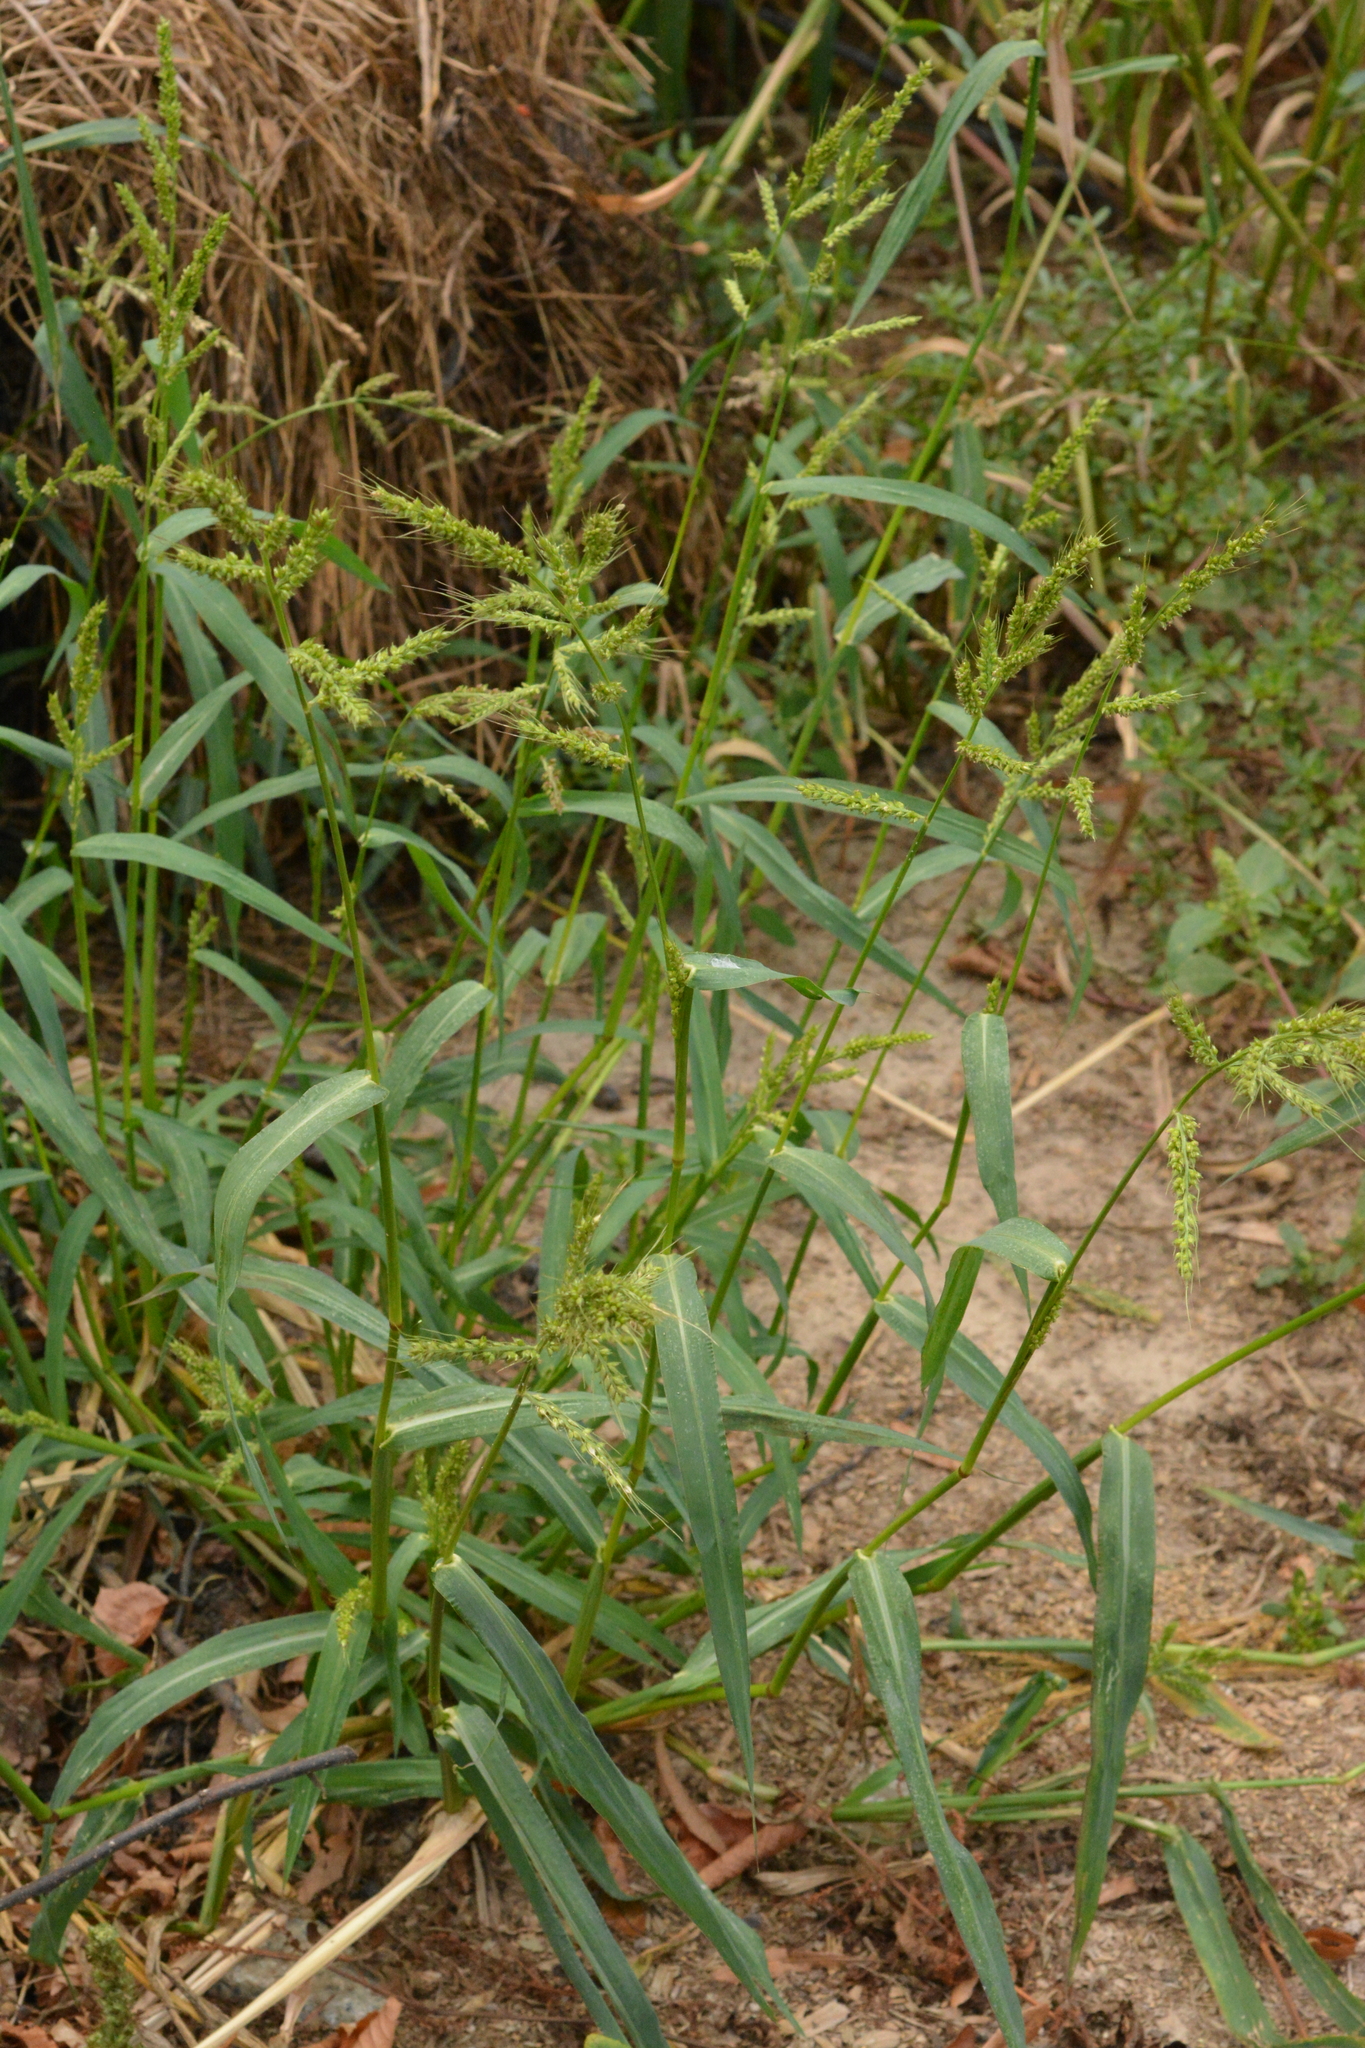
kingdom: Plantae
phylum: Tracheophyta
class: Liliopsida
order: Poales
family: Poaceae
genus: Echinochloa
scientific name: Echinochloa crus-galli
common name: Cockspur
